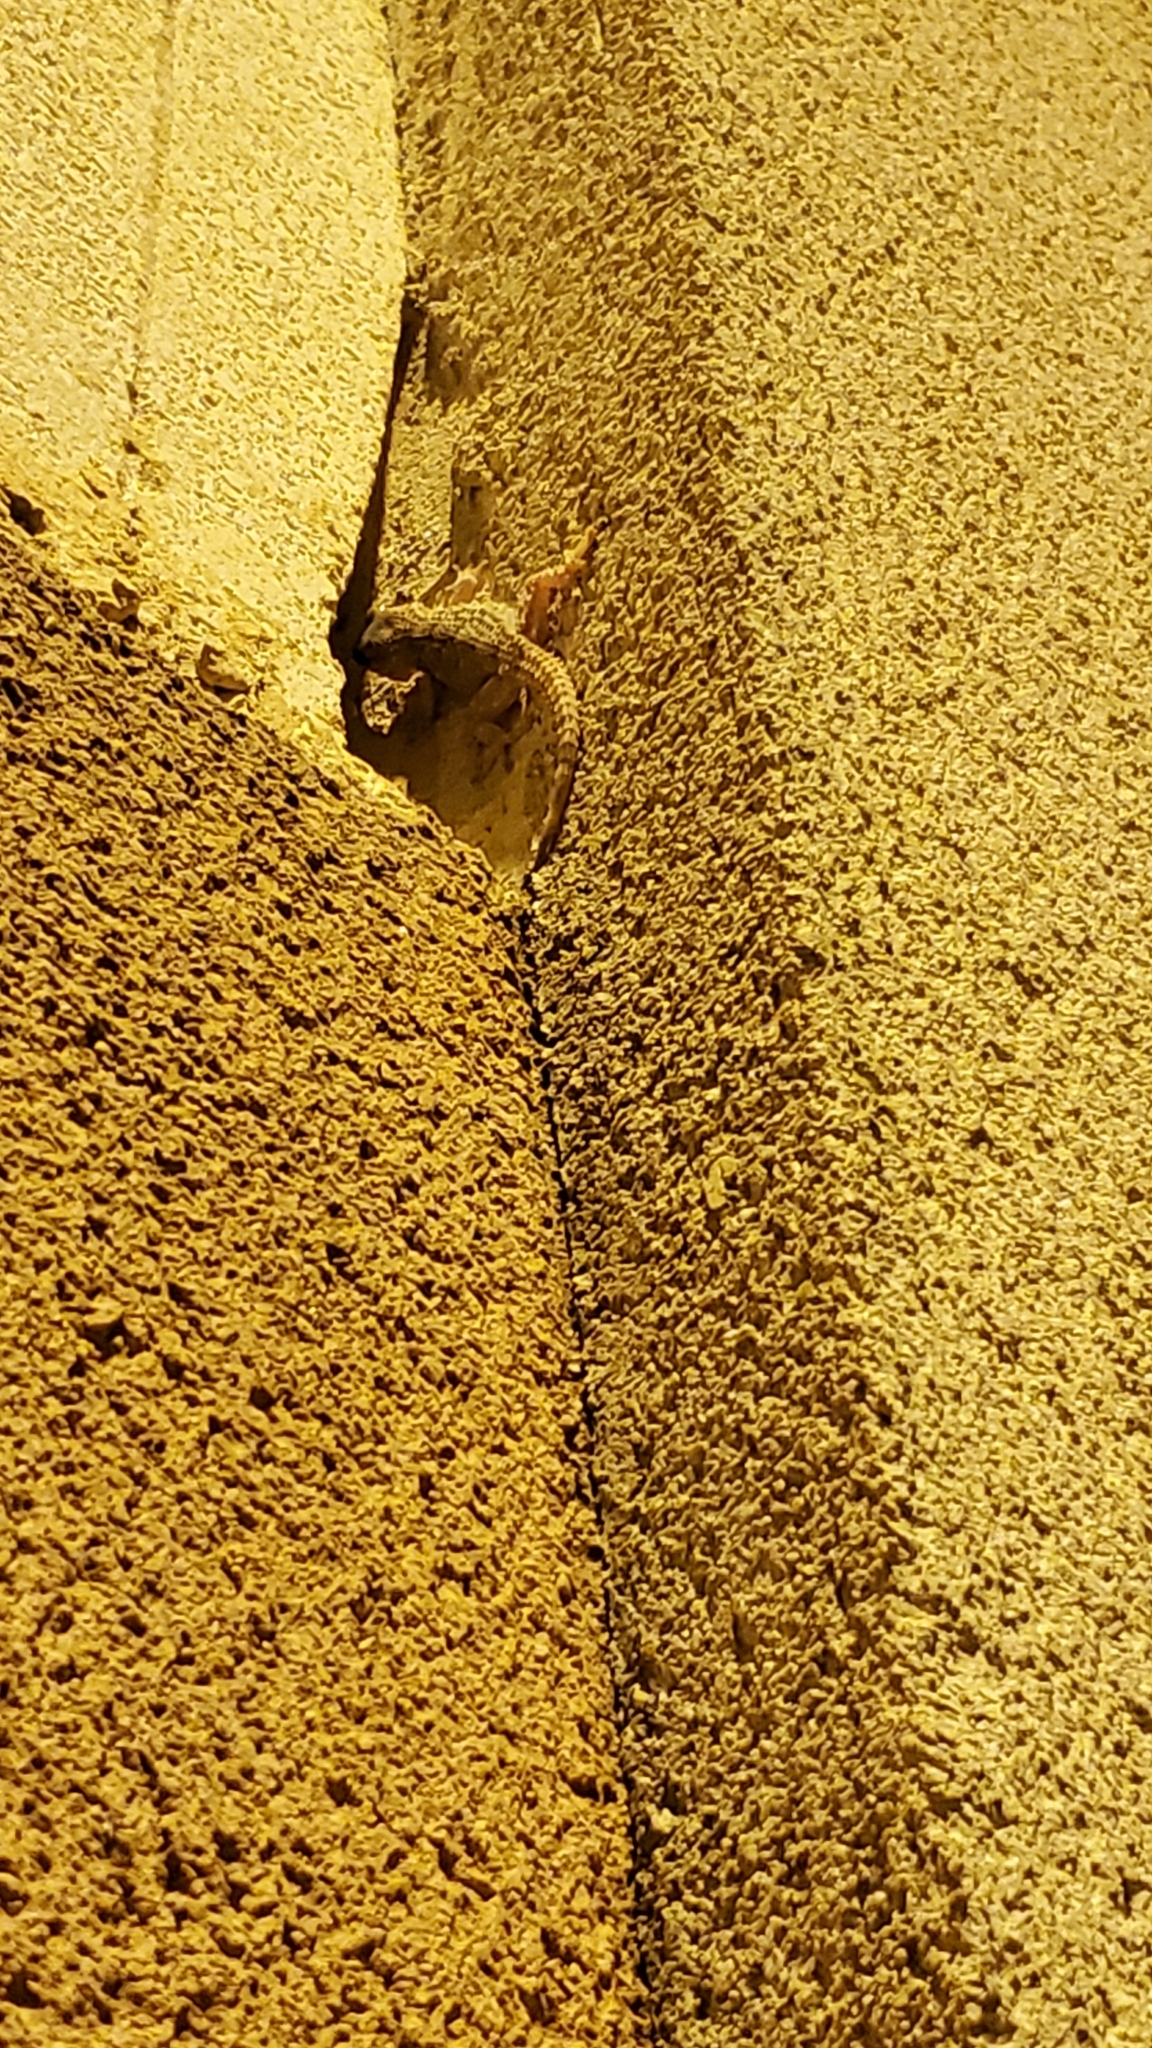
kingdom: Animalia
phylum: Chordata
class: Squamata
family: Phyllodactylidae
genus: Tarentola
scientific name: Tarentola mauritanica
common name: Moorish gecko
